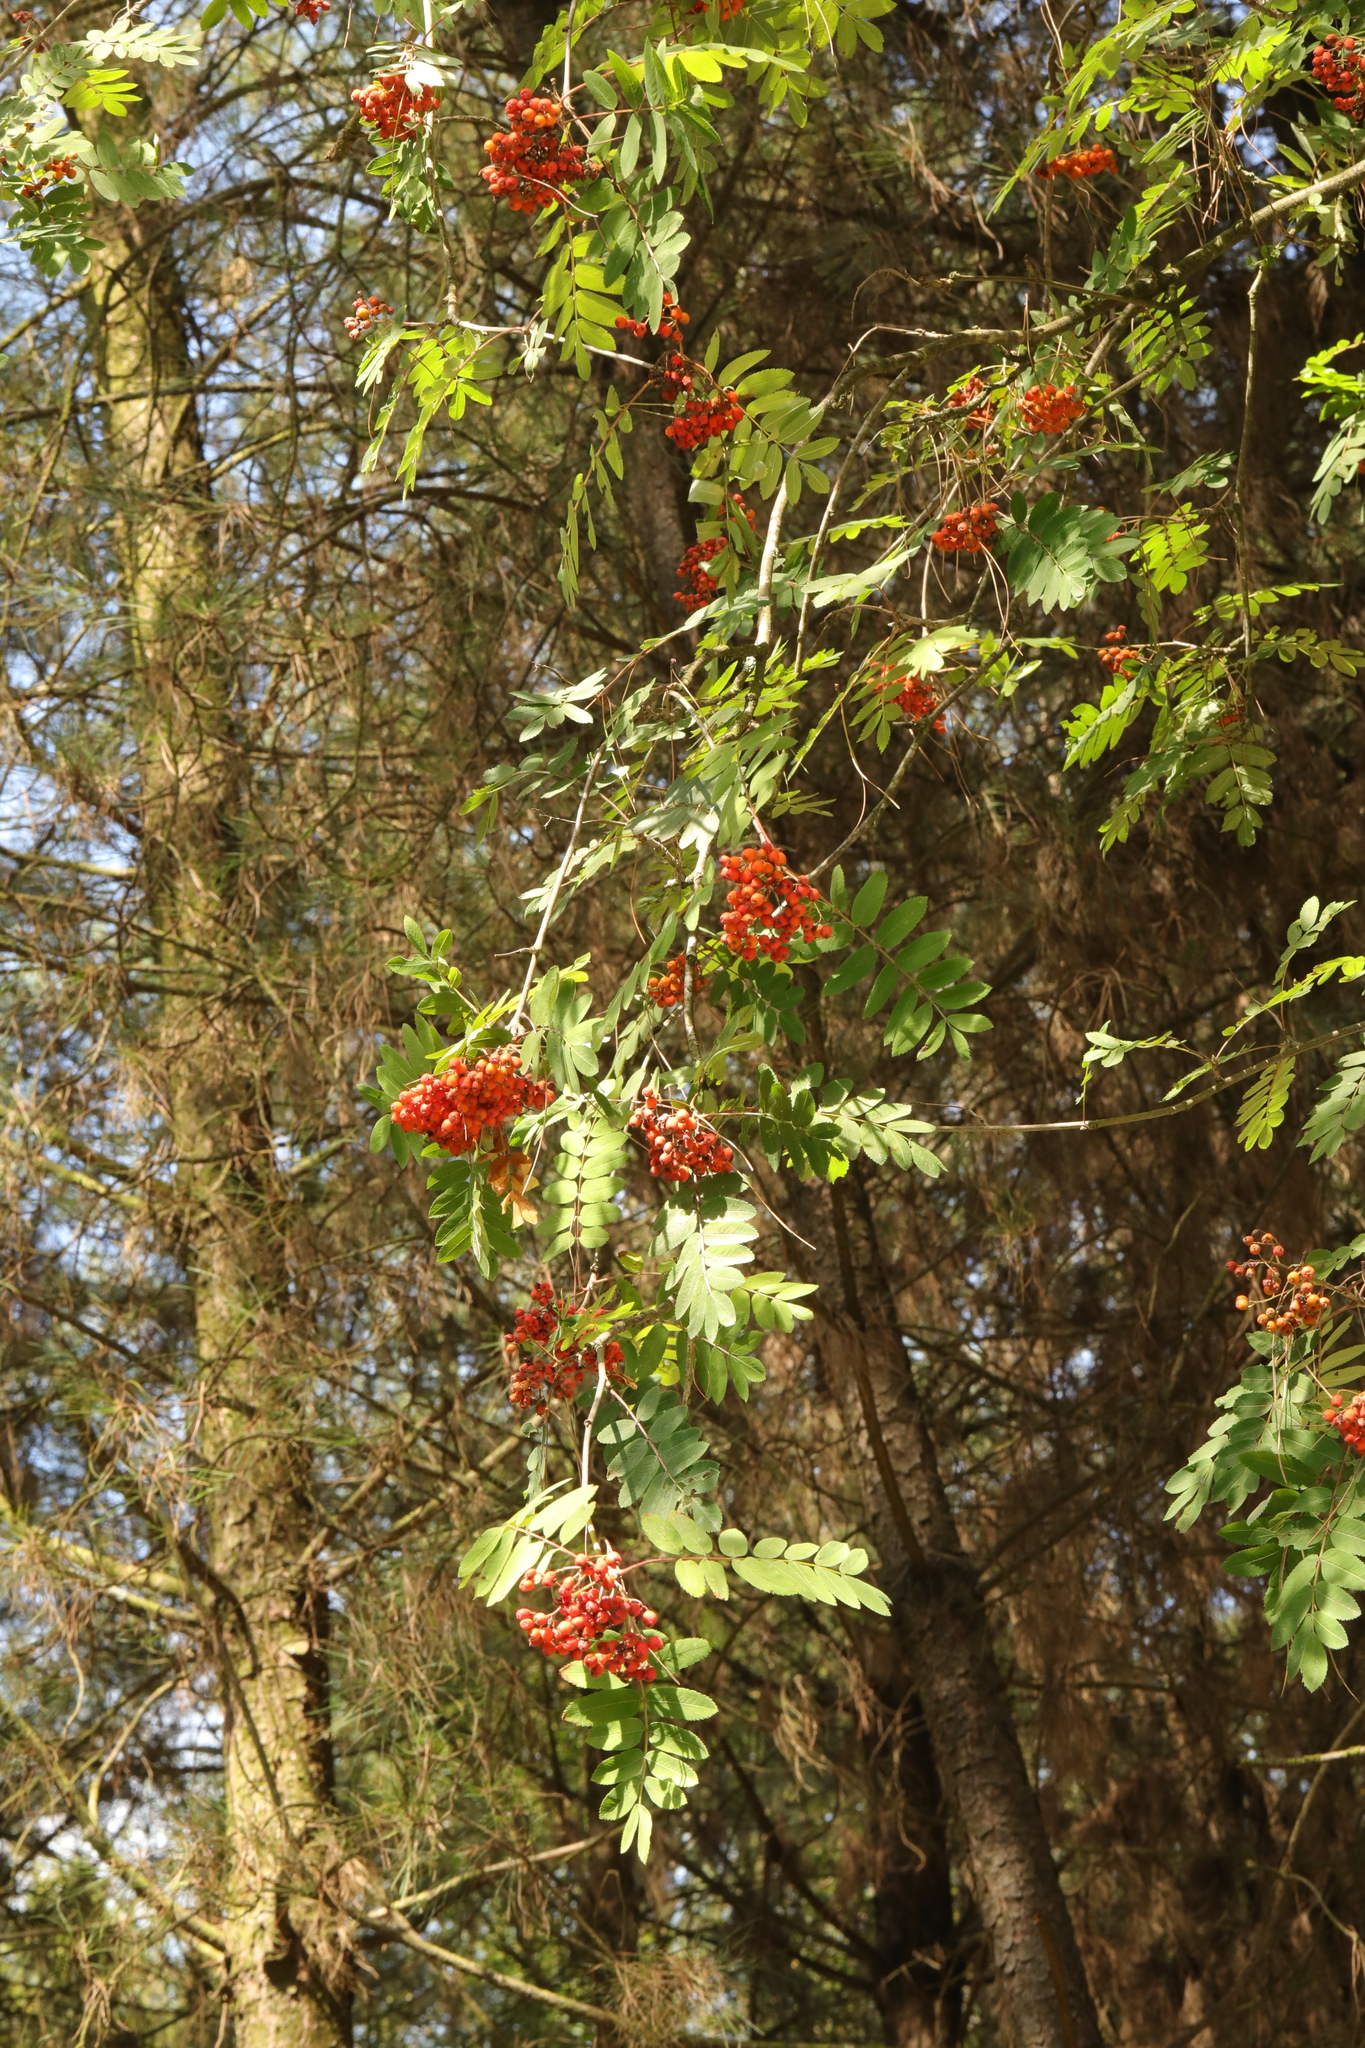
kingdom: Plantae
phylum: Tracheophyta
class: Magnoliopsida
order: Rosales
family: Rosaceae
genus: Sorbus
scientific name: Sorbus aucuparia
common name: Rowan
